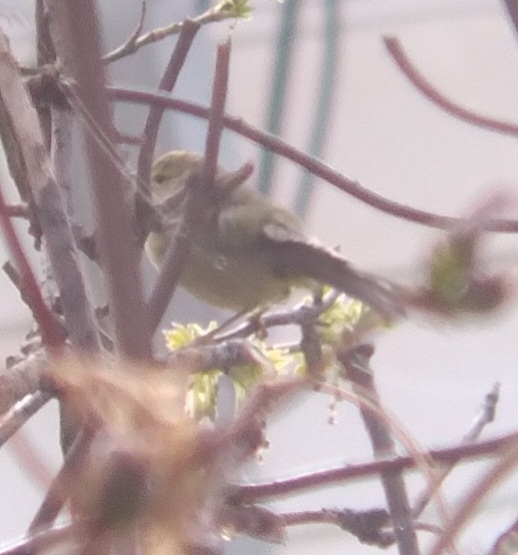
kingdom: Animalia
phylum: Chordata
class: Aves
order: Passeriformes
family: Parulidae
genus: Leiothlypis
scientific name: Leiothlypis celata
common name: Orange-crowned warbler
